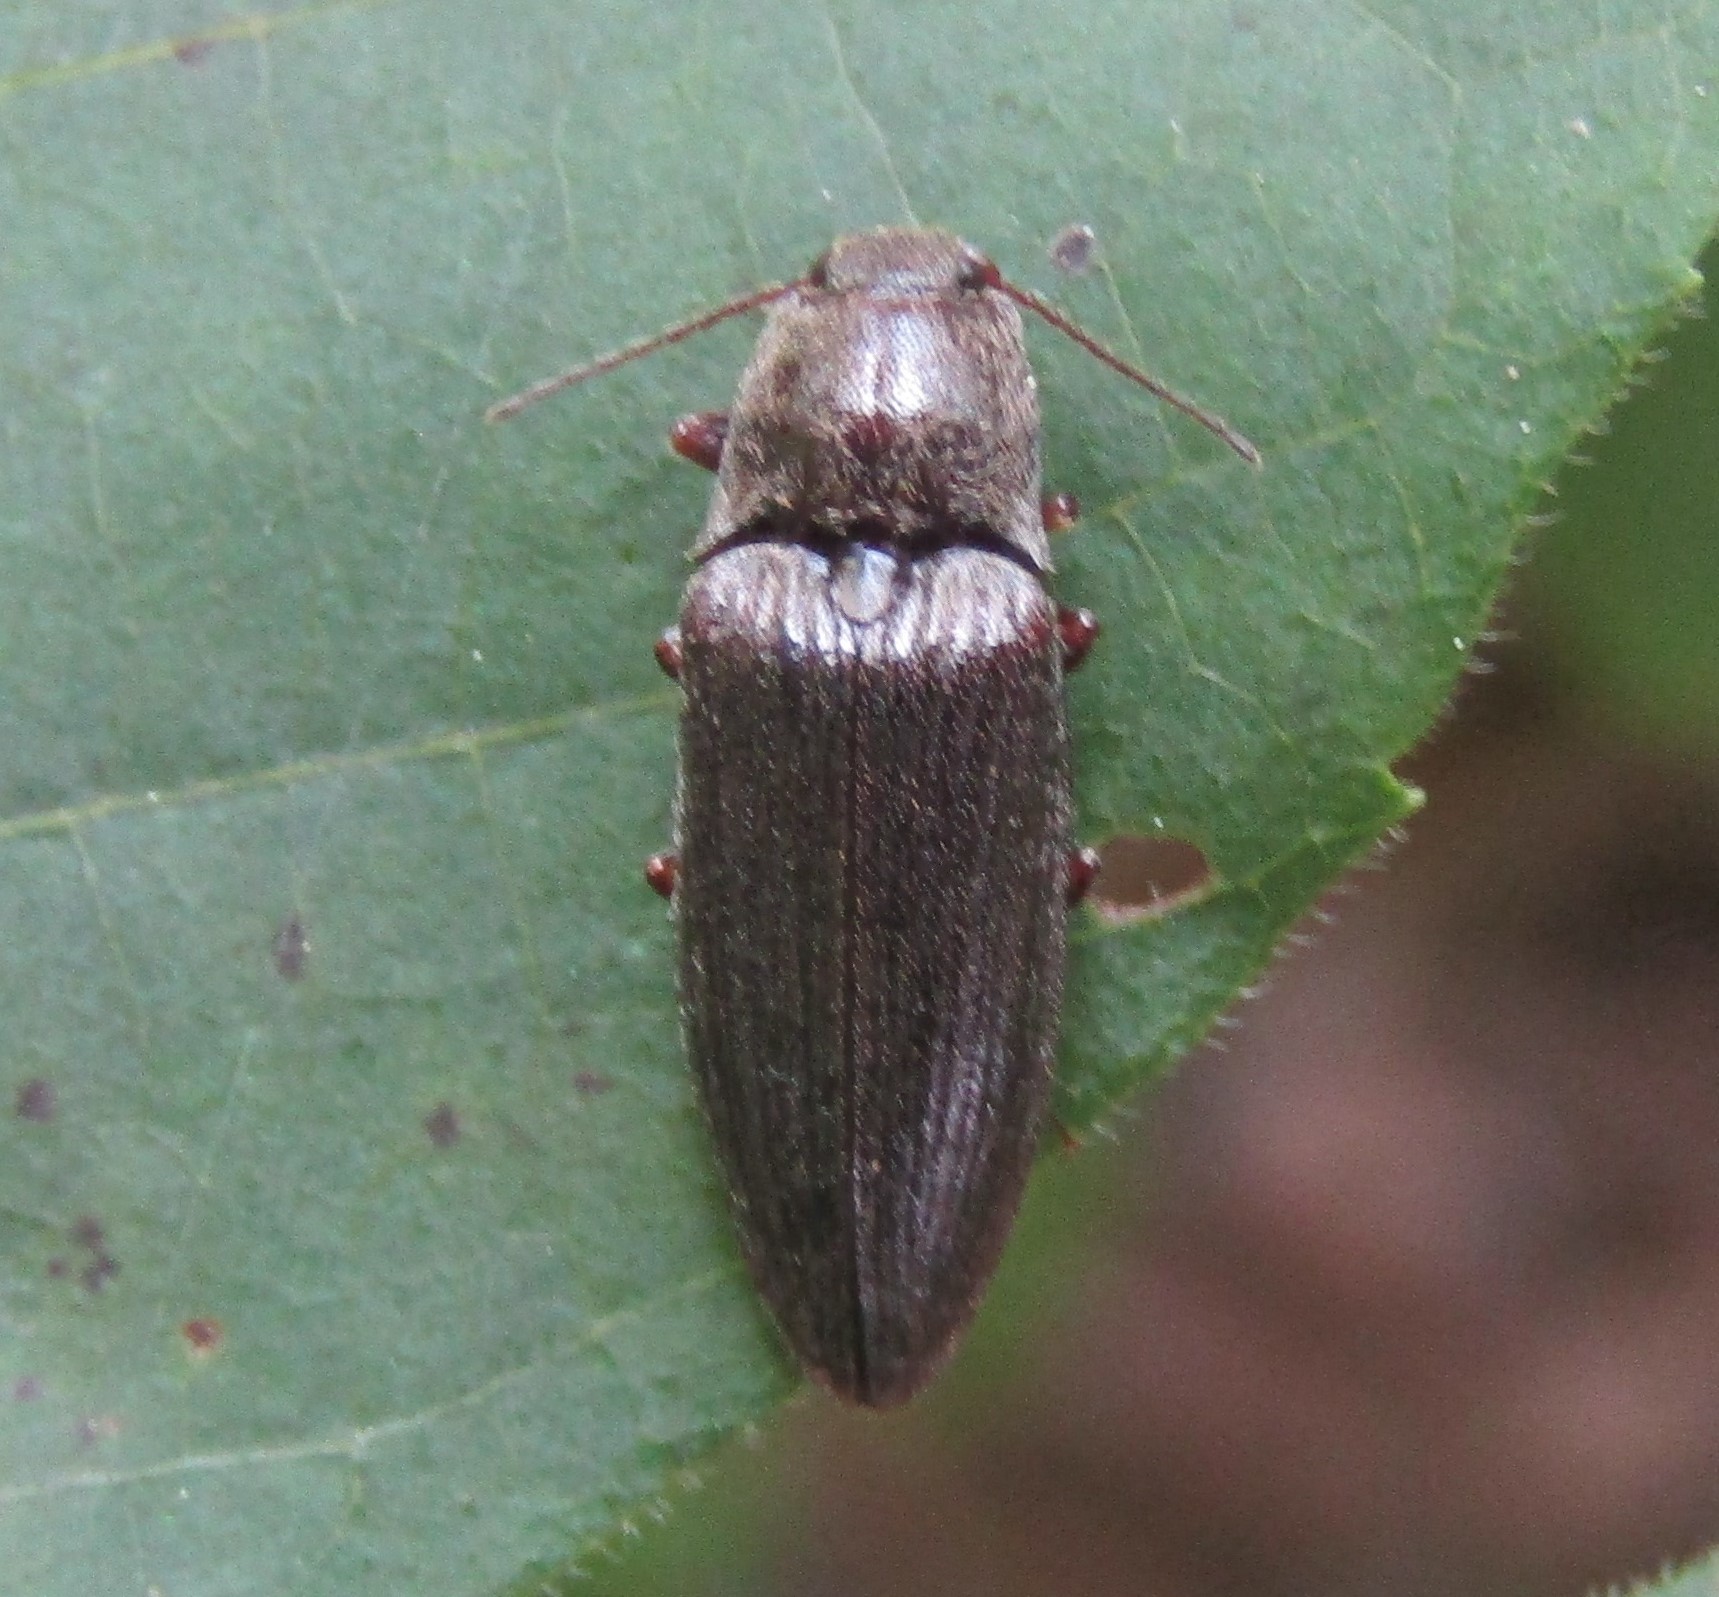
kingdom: Animalia
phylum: Arthropoda
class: Insecta
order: Coleoptera
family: Elateridae
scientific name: Elateridae
